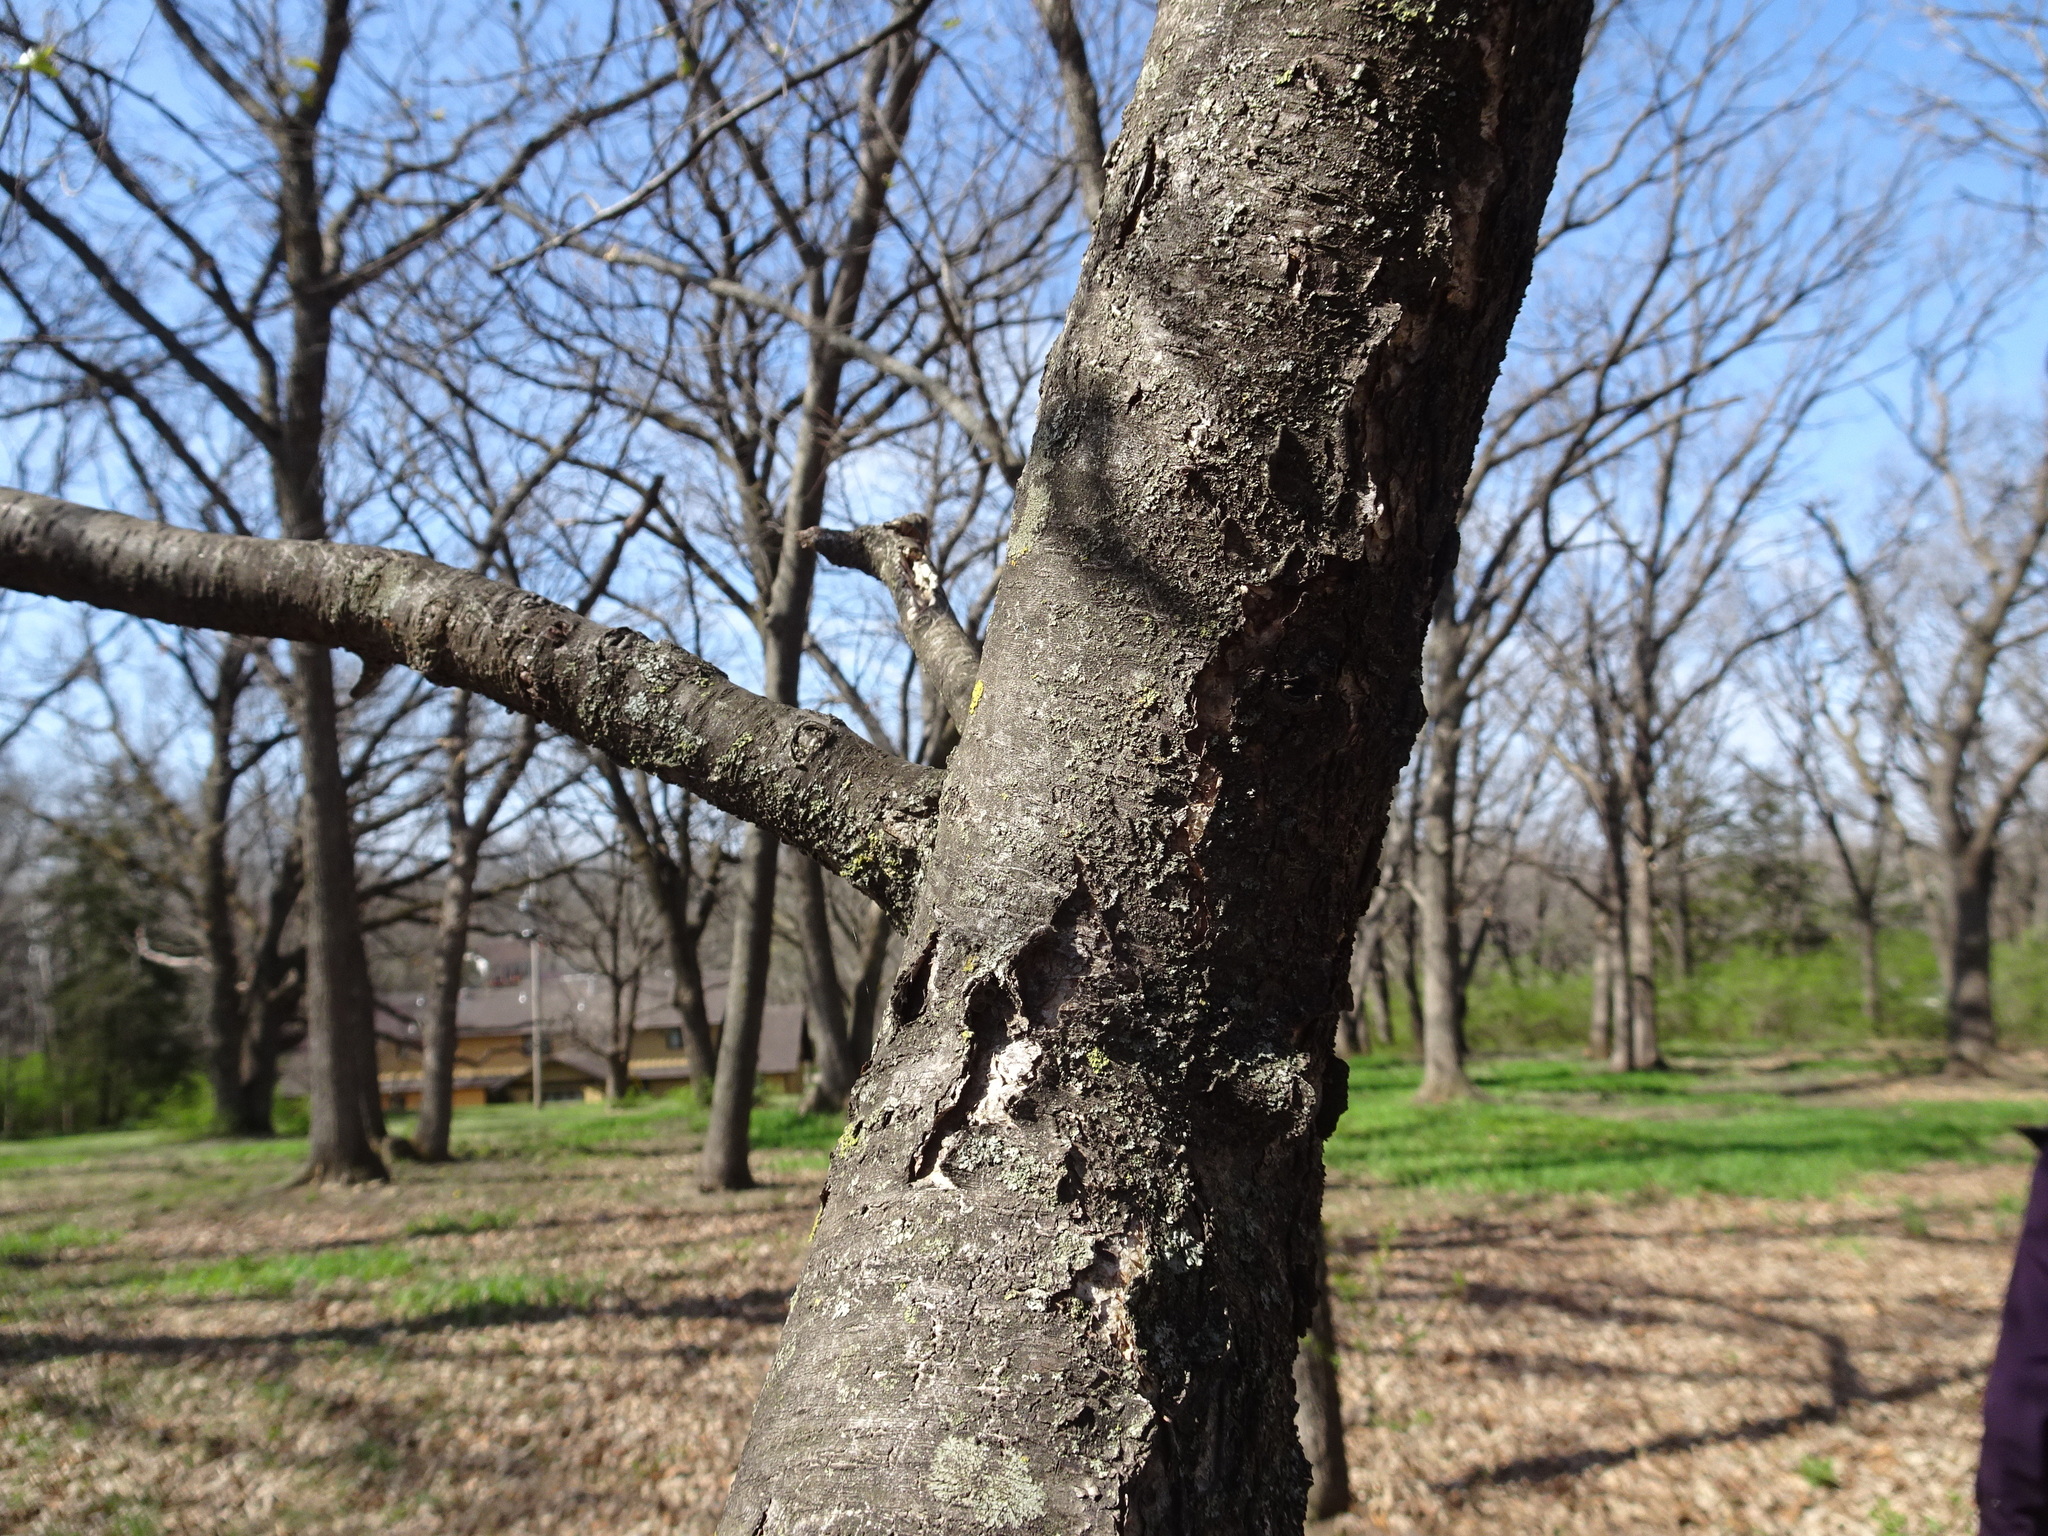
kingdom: Plantae
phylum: Tracheophyta
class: Magnoliopsida
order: Rosales
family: Rosaceae
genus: Prunus
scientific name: Prunus serotina
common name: Black cherry
